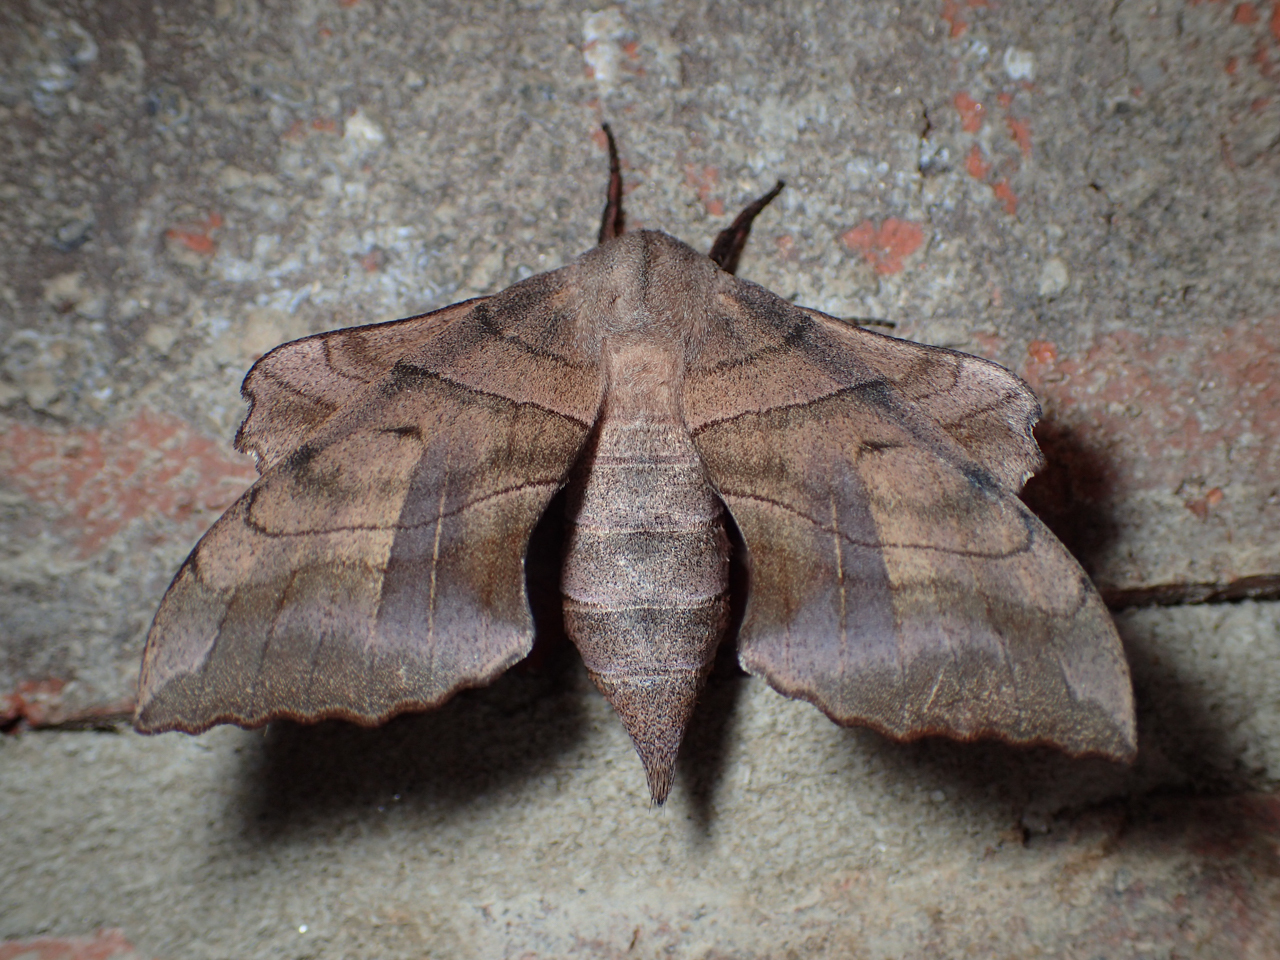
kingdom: Animalia
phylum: Arthropoda
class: Insecta
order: Lepidoptera
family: Sphingidae
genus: Amorpha
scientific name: Amorpha juglandis
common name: Walnut sphinx
